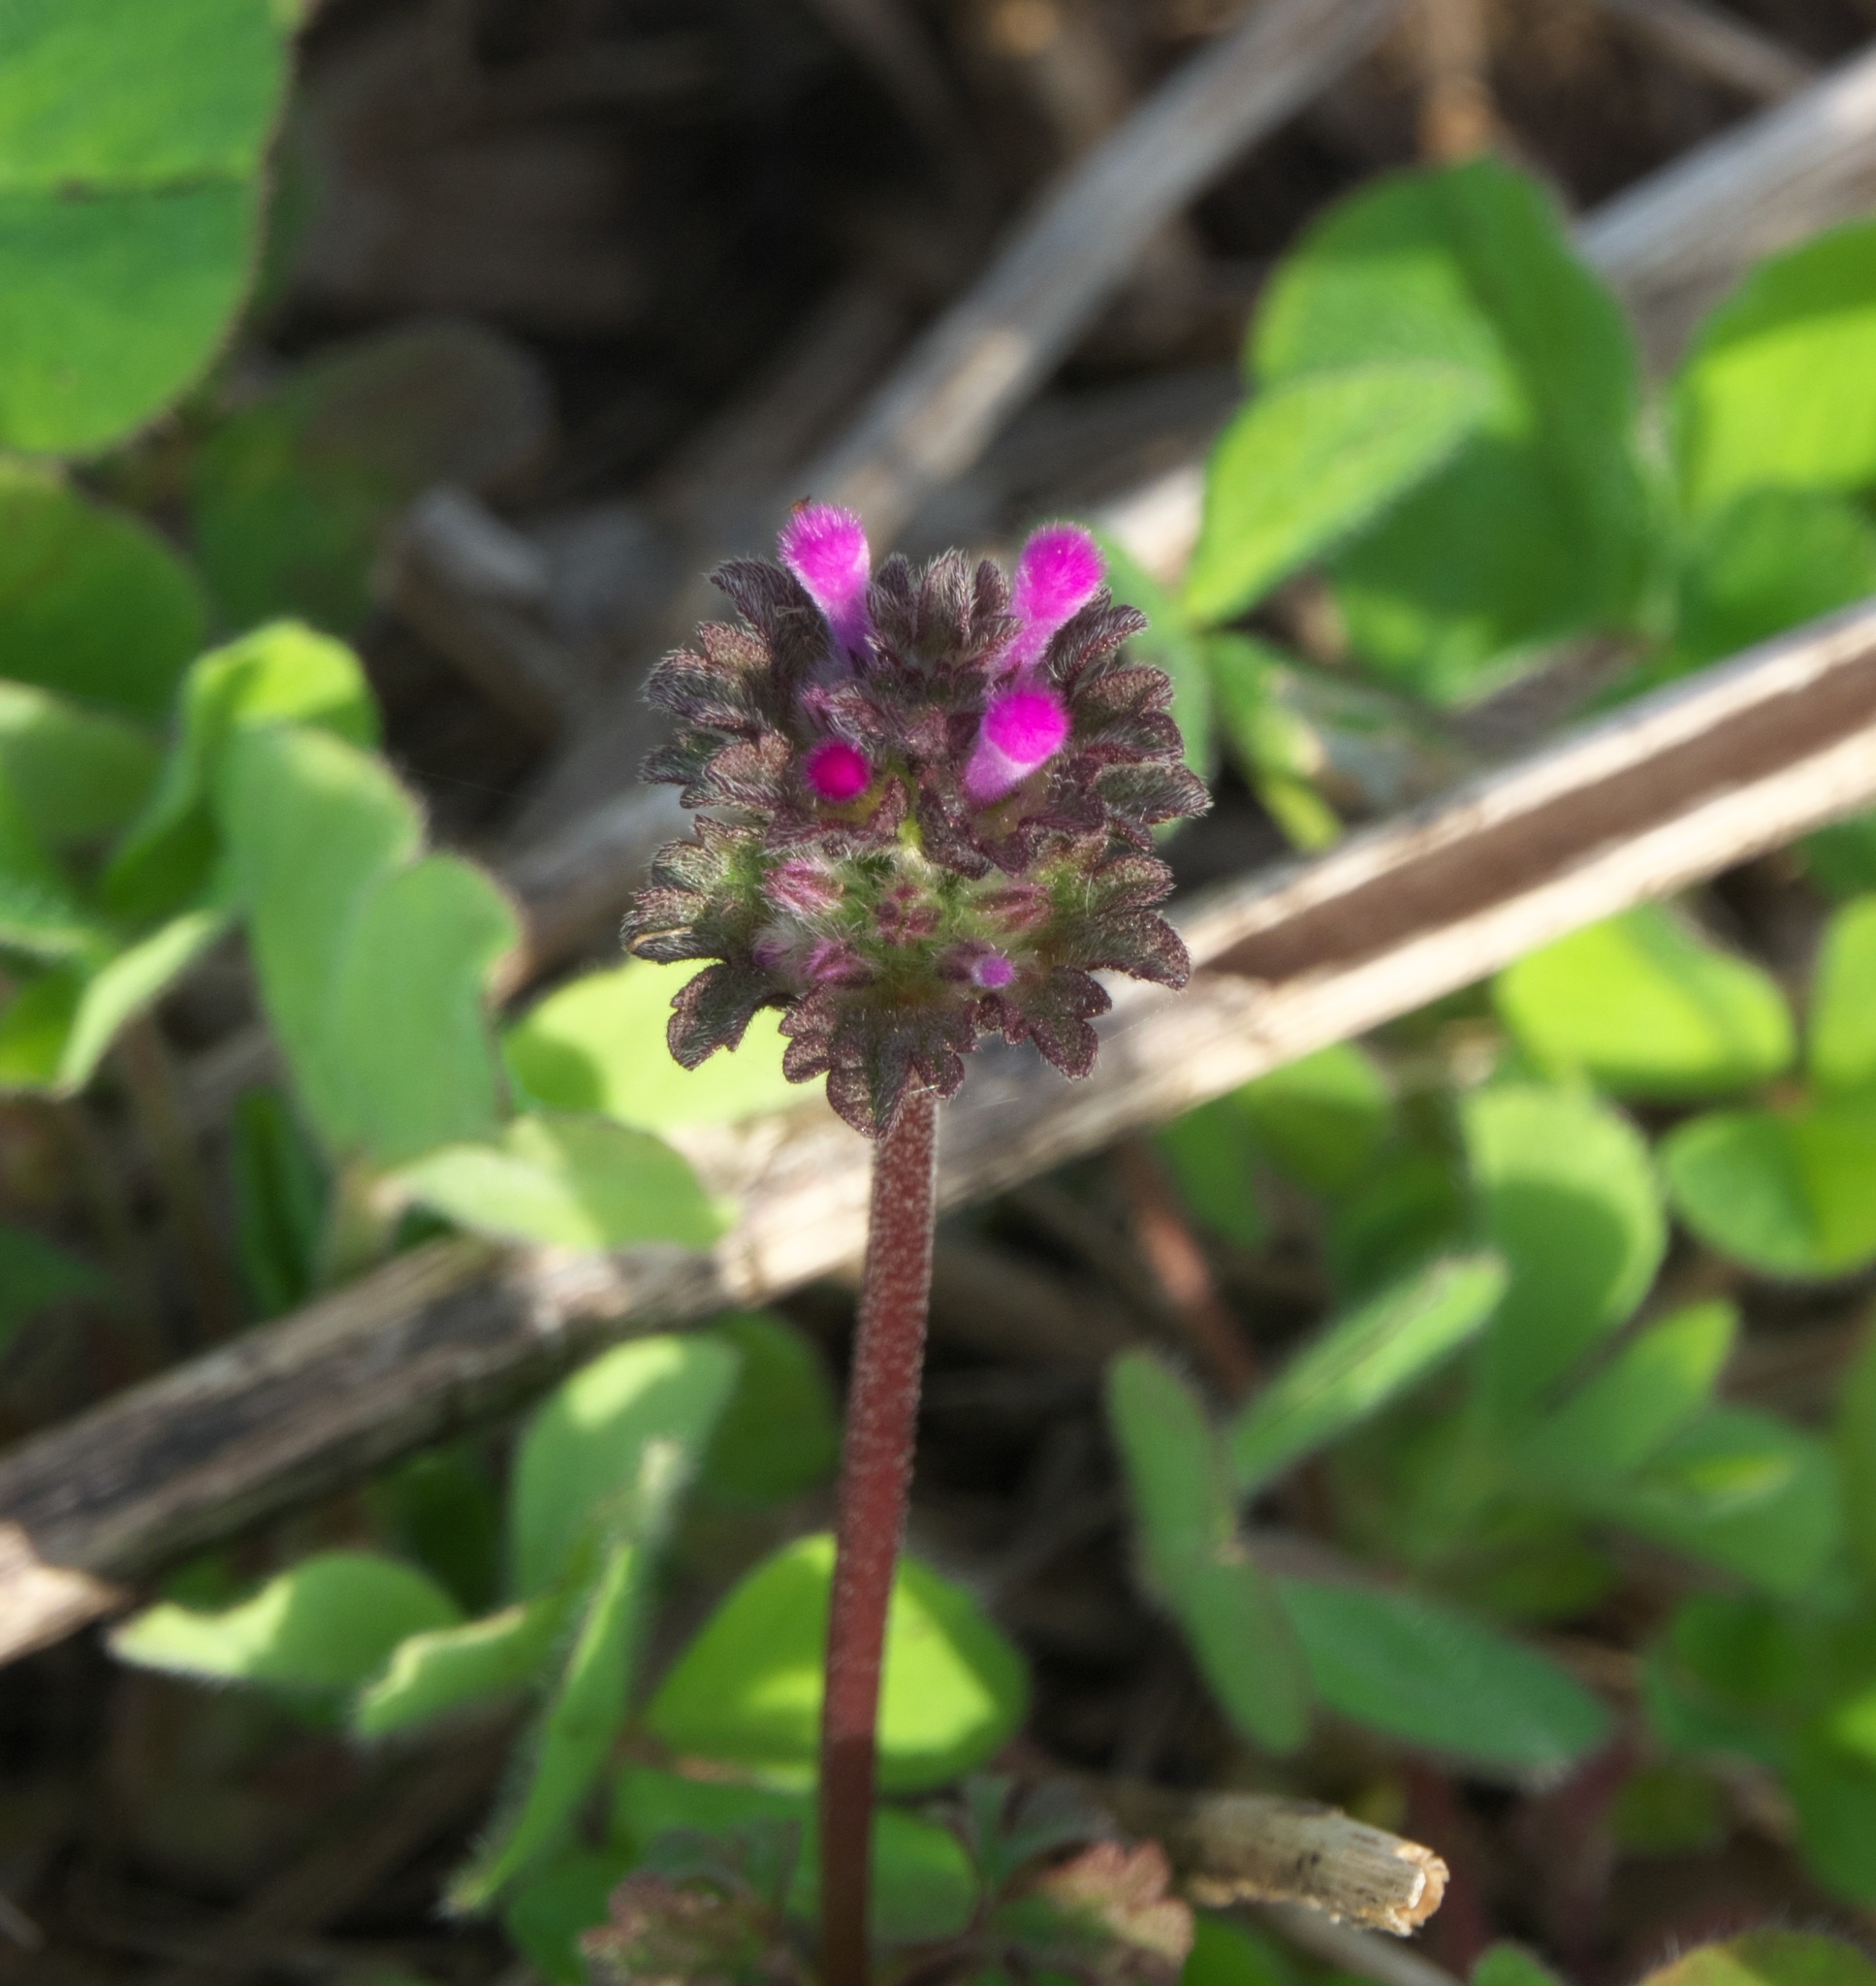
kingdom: Plantae
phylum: Tracheophyta
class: Magnoliopsida
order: Lamiales
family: Lamiaceae
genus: Lamium
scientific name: Lamium amplexicaule
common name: Henbit dead-nettle
